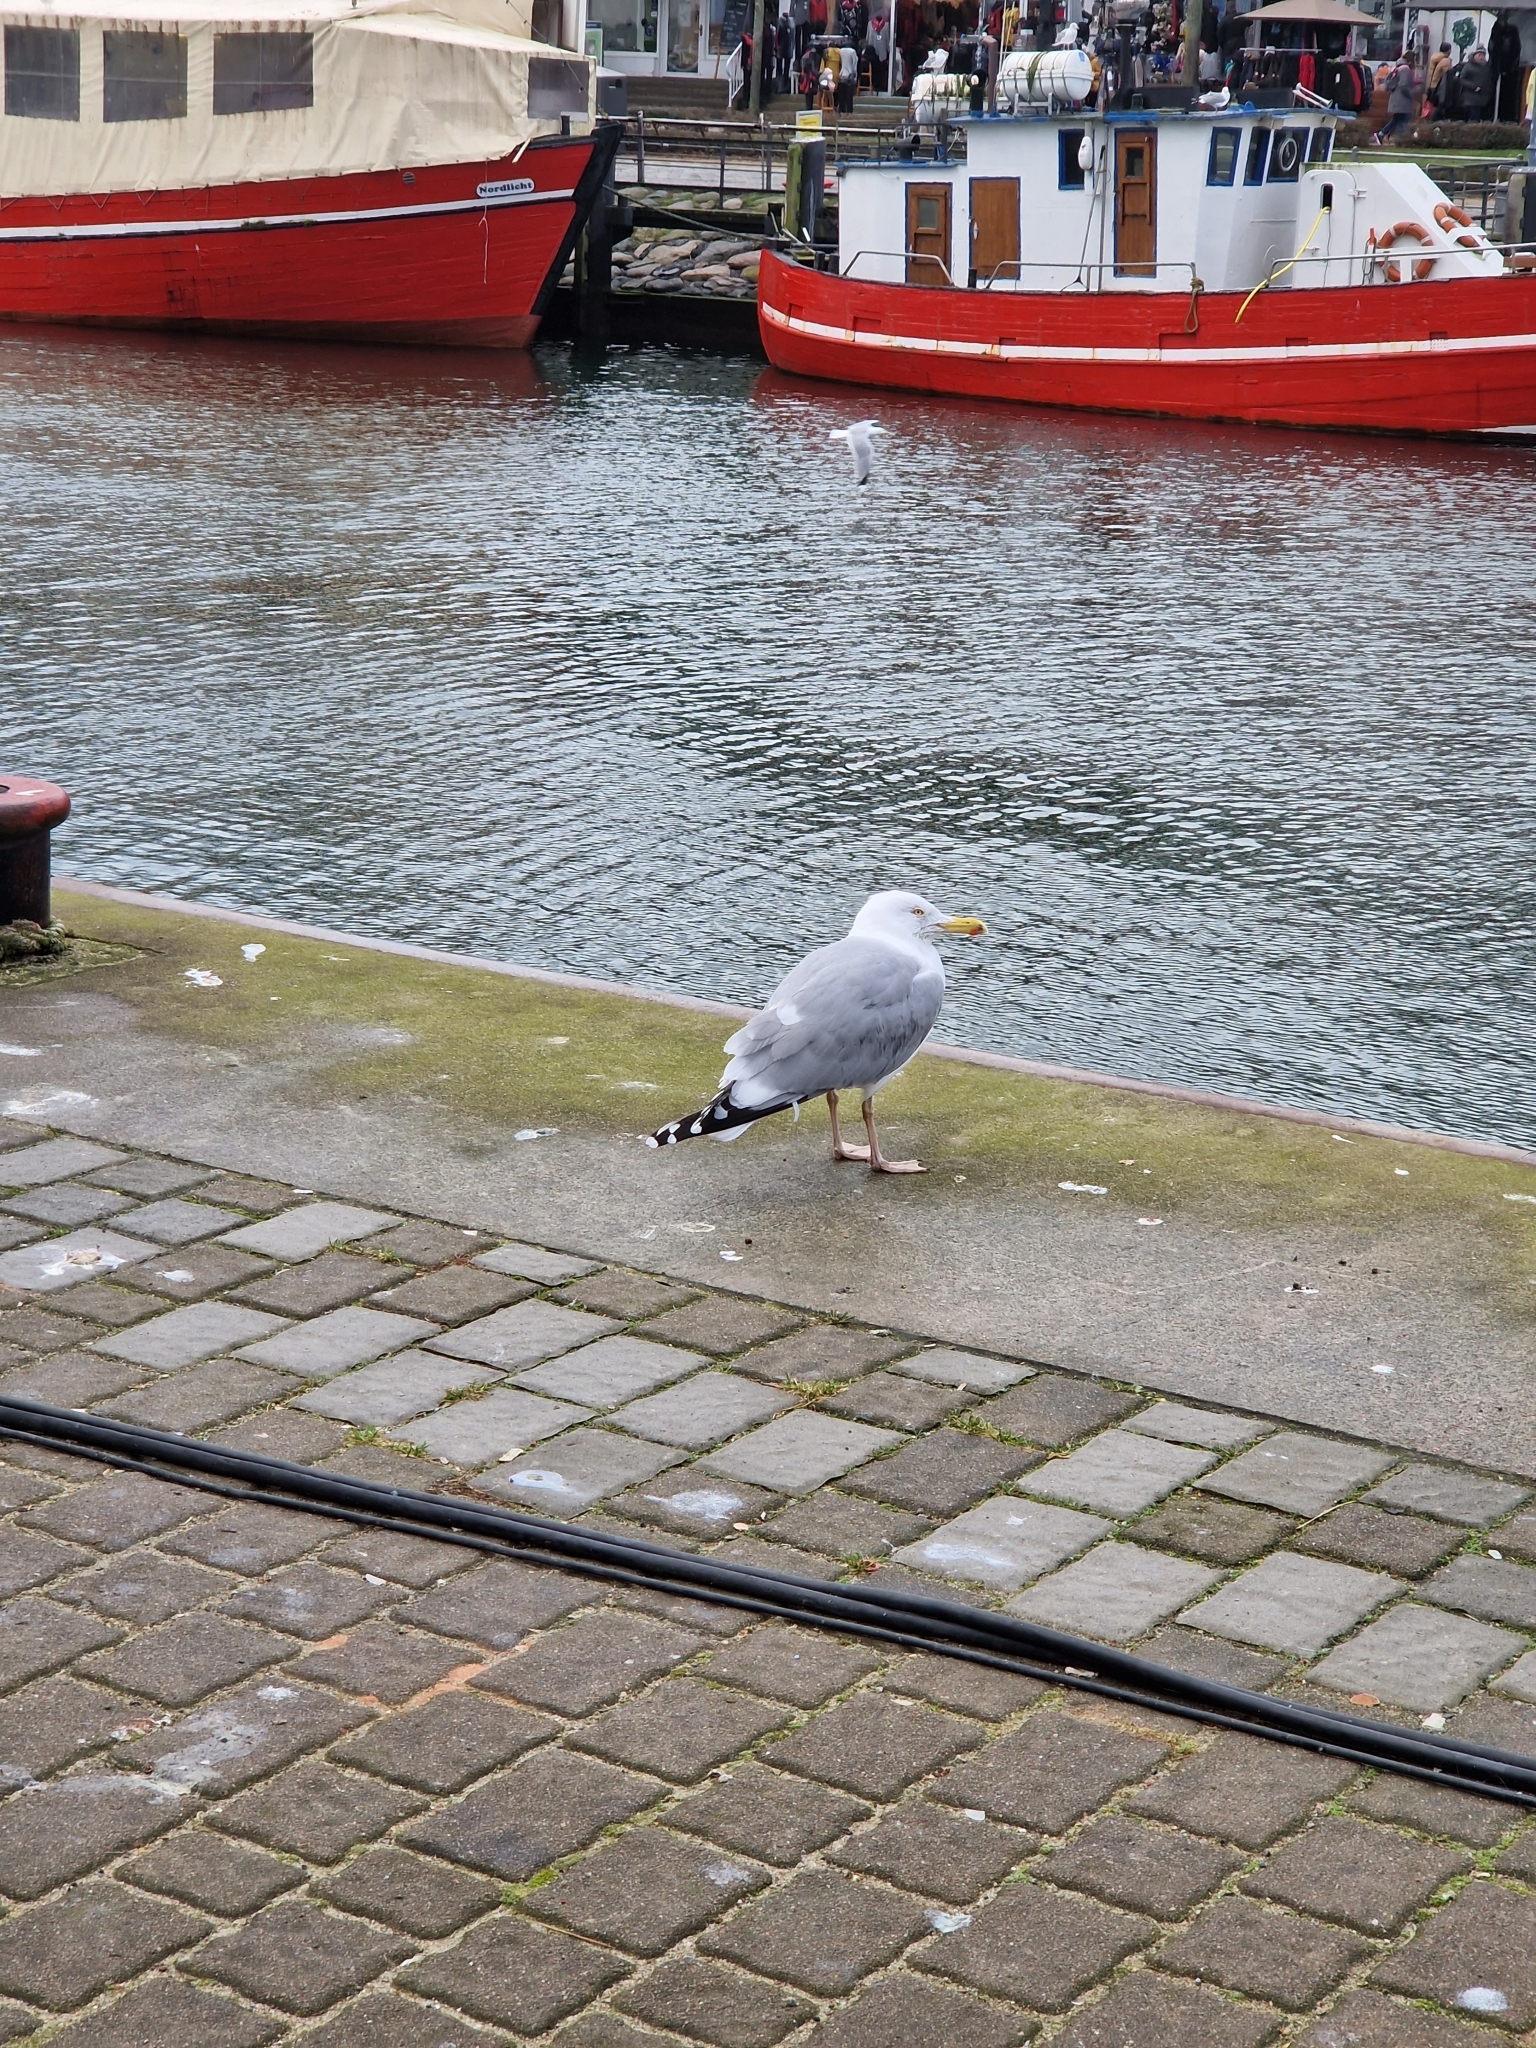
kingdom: Animalia
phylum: Chordata
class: Aves
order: Charadriiformes
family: Laridae
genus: Larus
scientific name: Larus argentatus
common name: Herring gull
